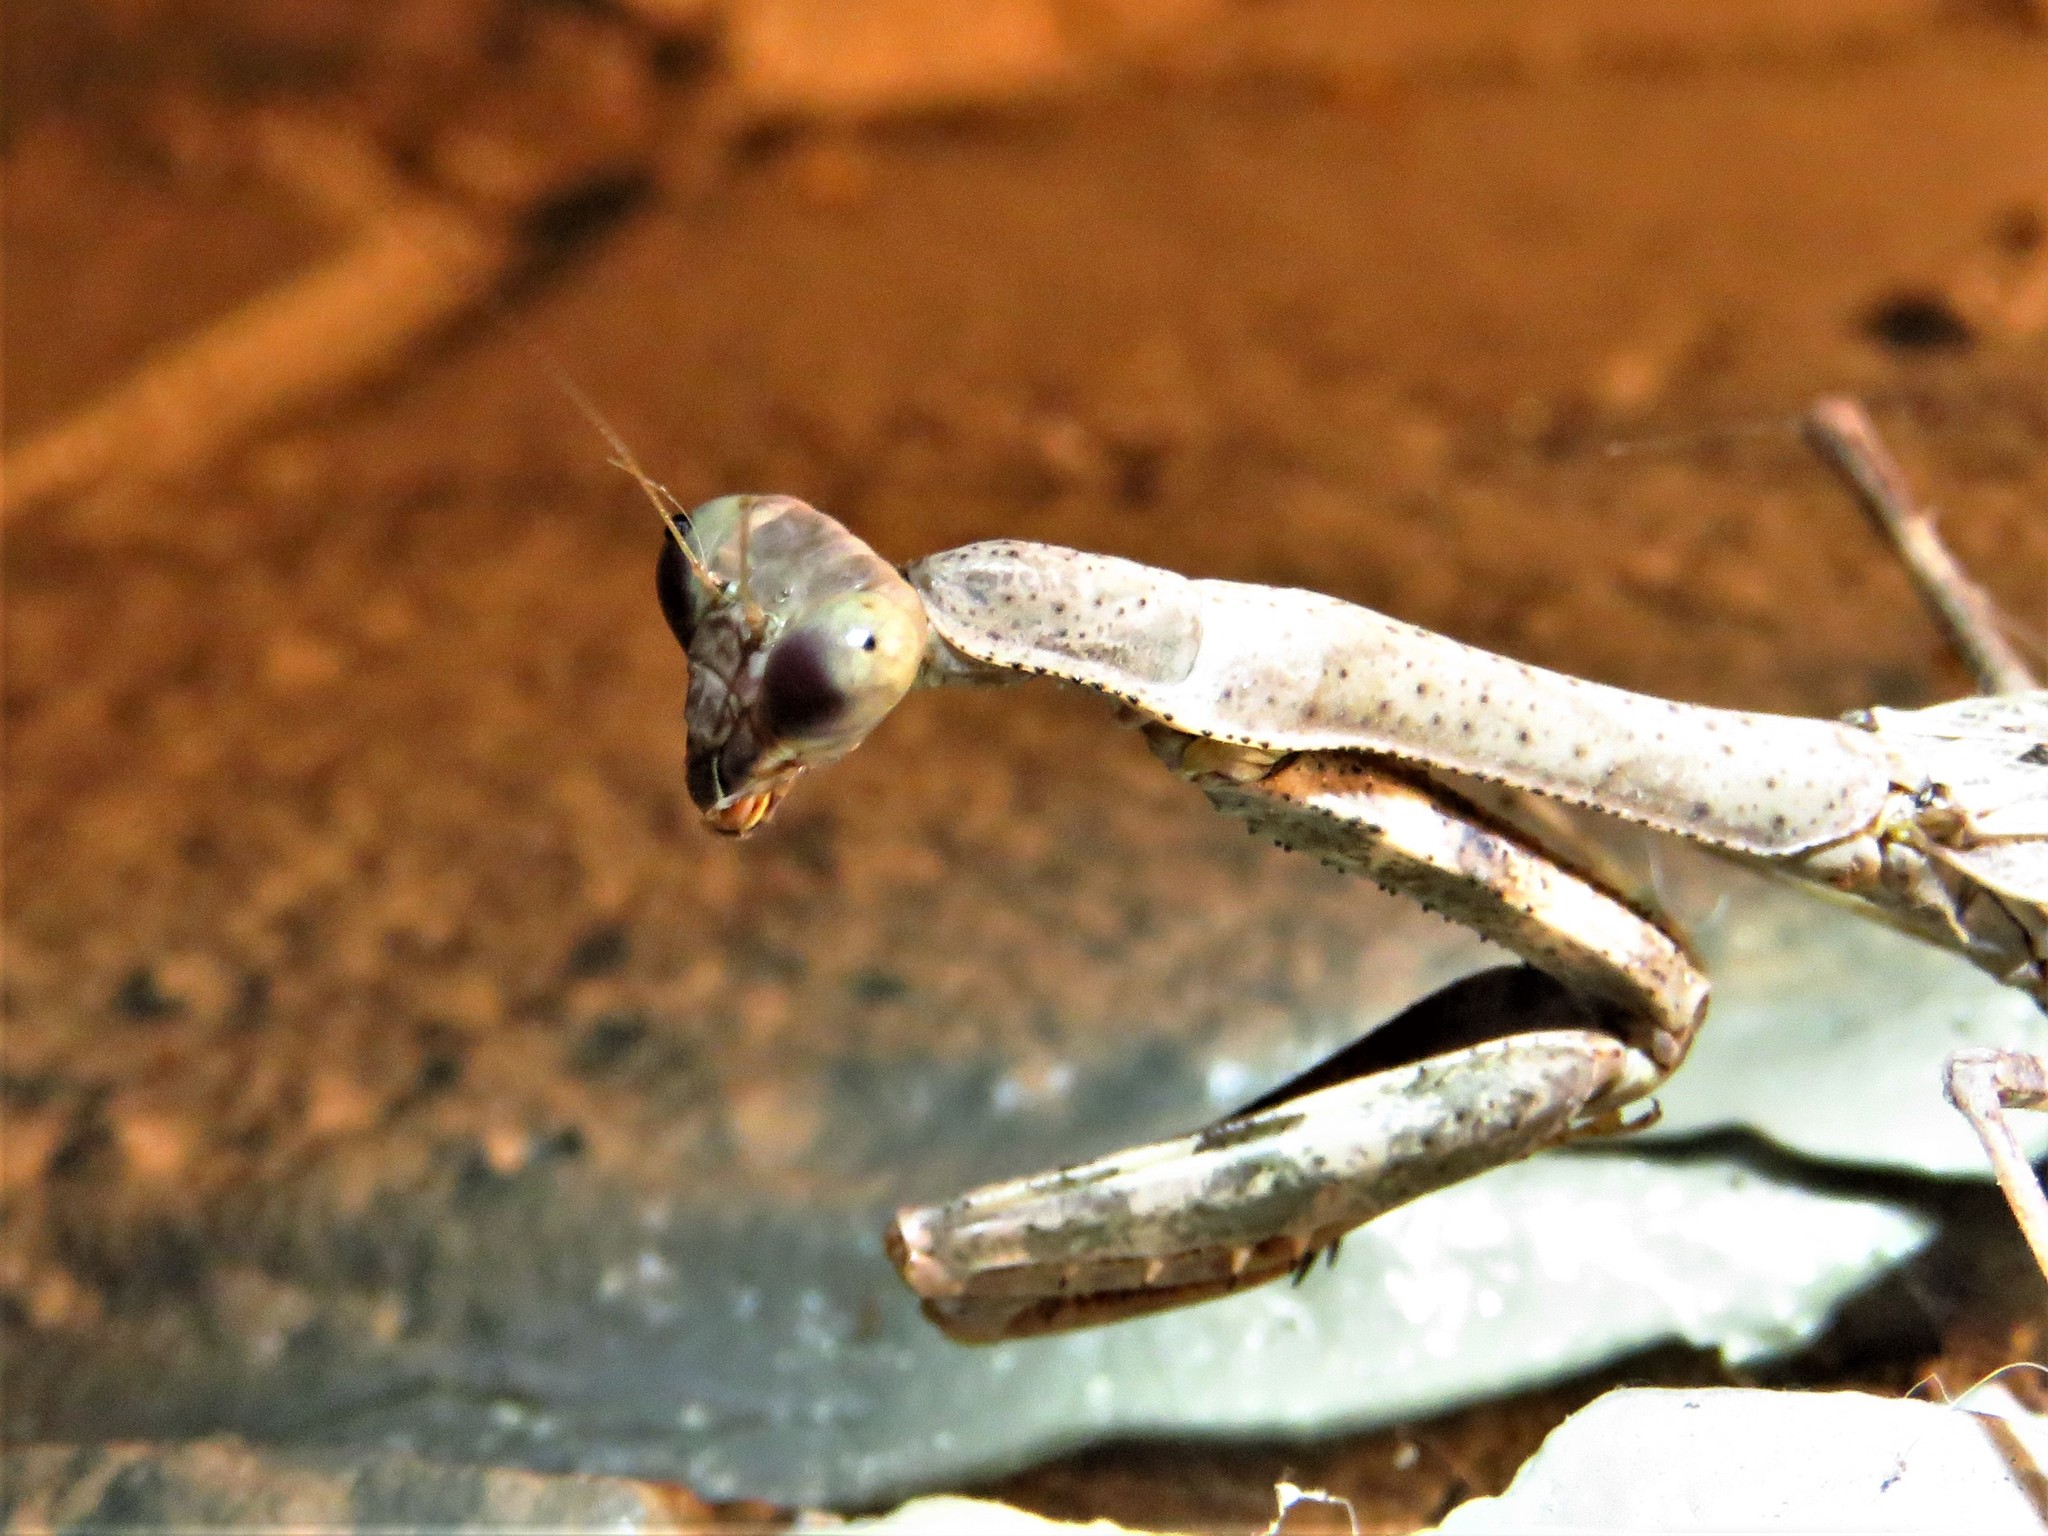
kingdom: Animalia
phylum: Arthropoda
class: Insecta
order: Mantodea
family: Mantidae
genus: Stagmomantis
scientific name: Stagmomantis carolina
